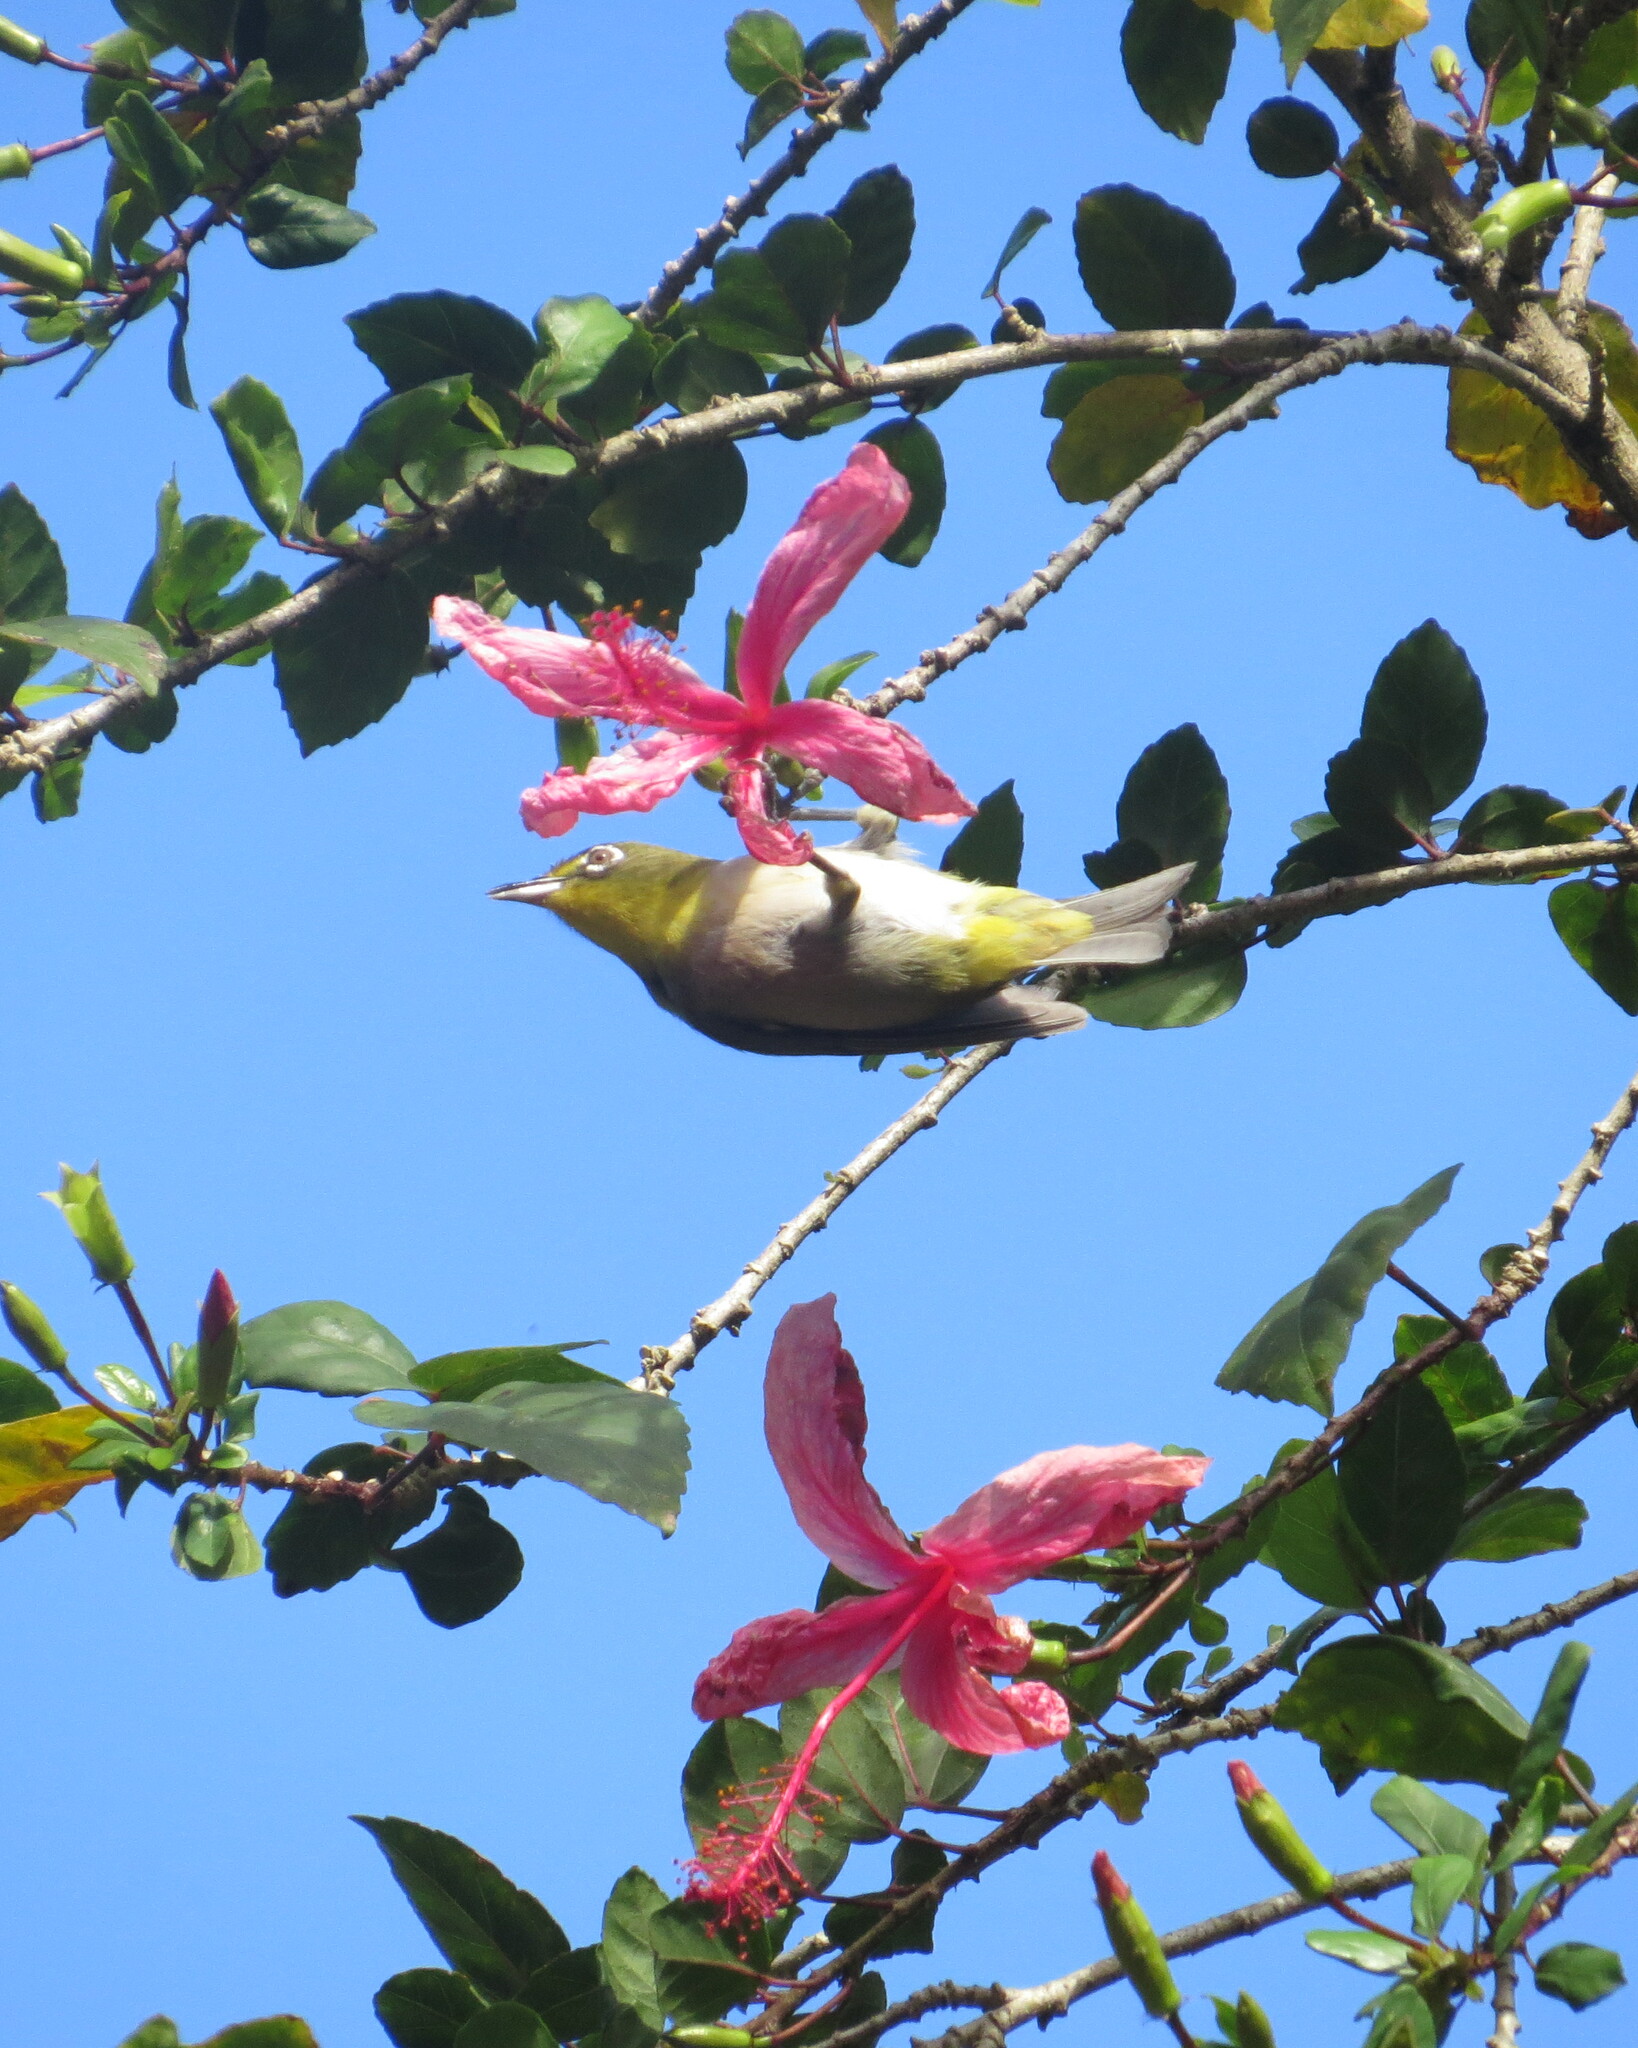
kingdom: Animalia
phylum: Chordata
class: Aves
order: Passeriformes
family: Zosteropidae
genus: Zosterops
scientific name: Zosterops japonicus
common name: Japanese white-eye
